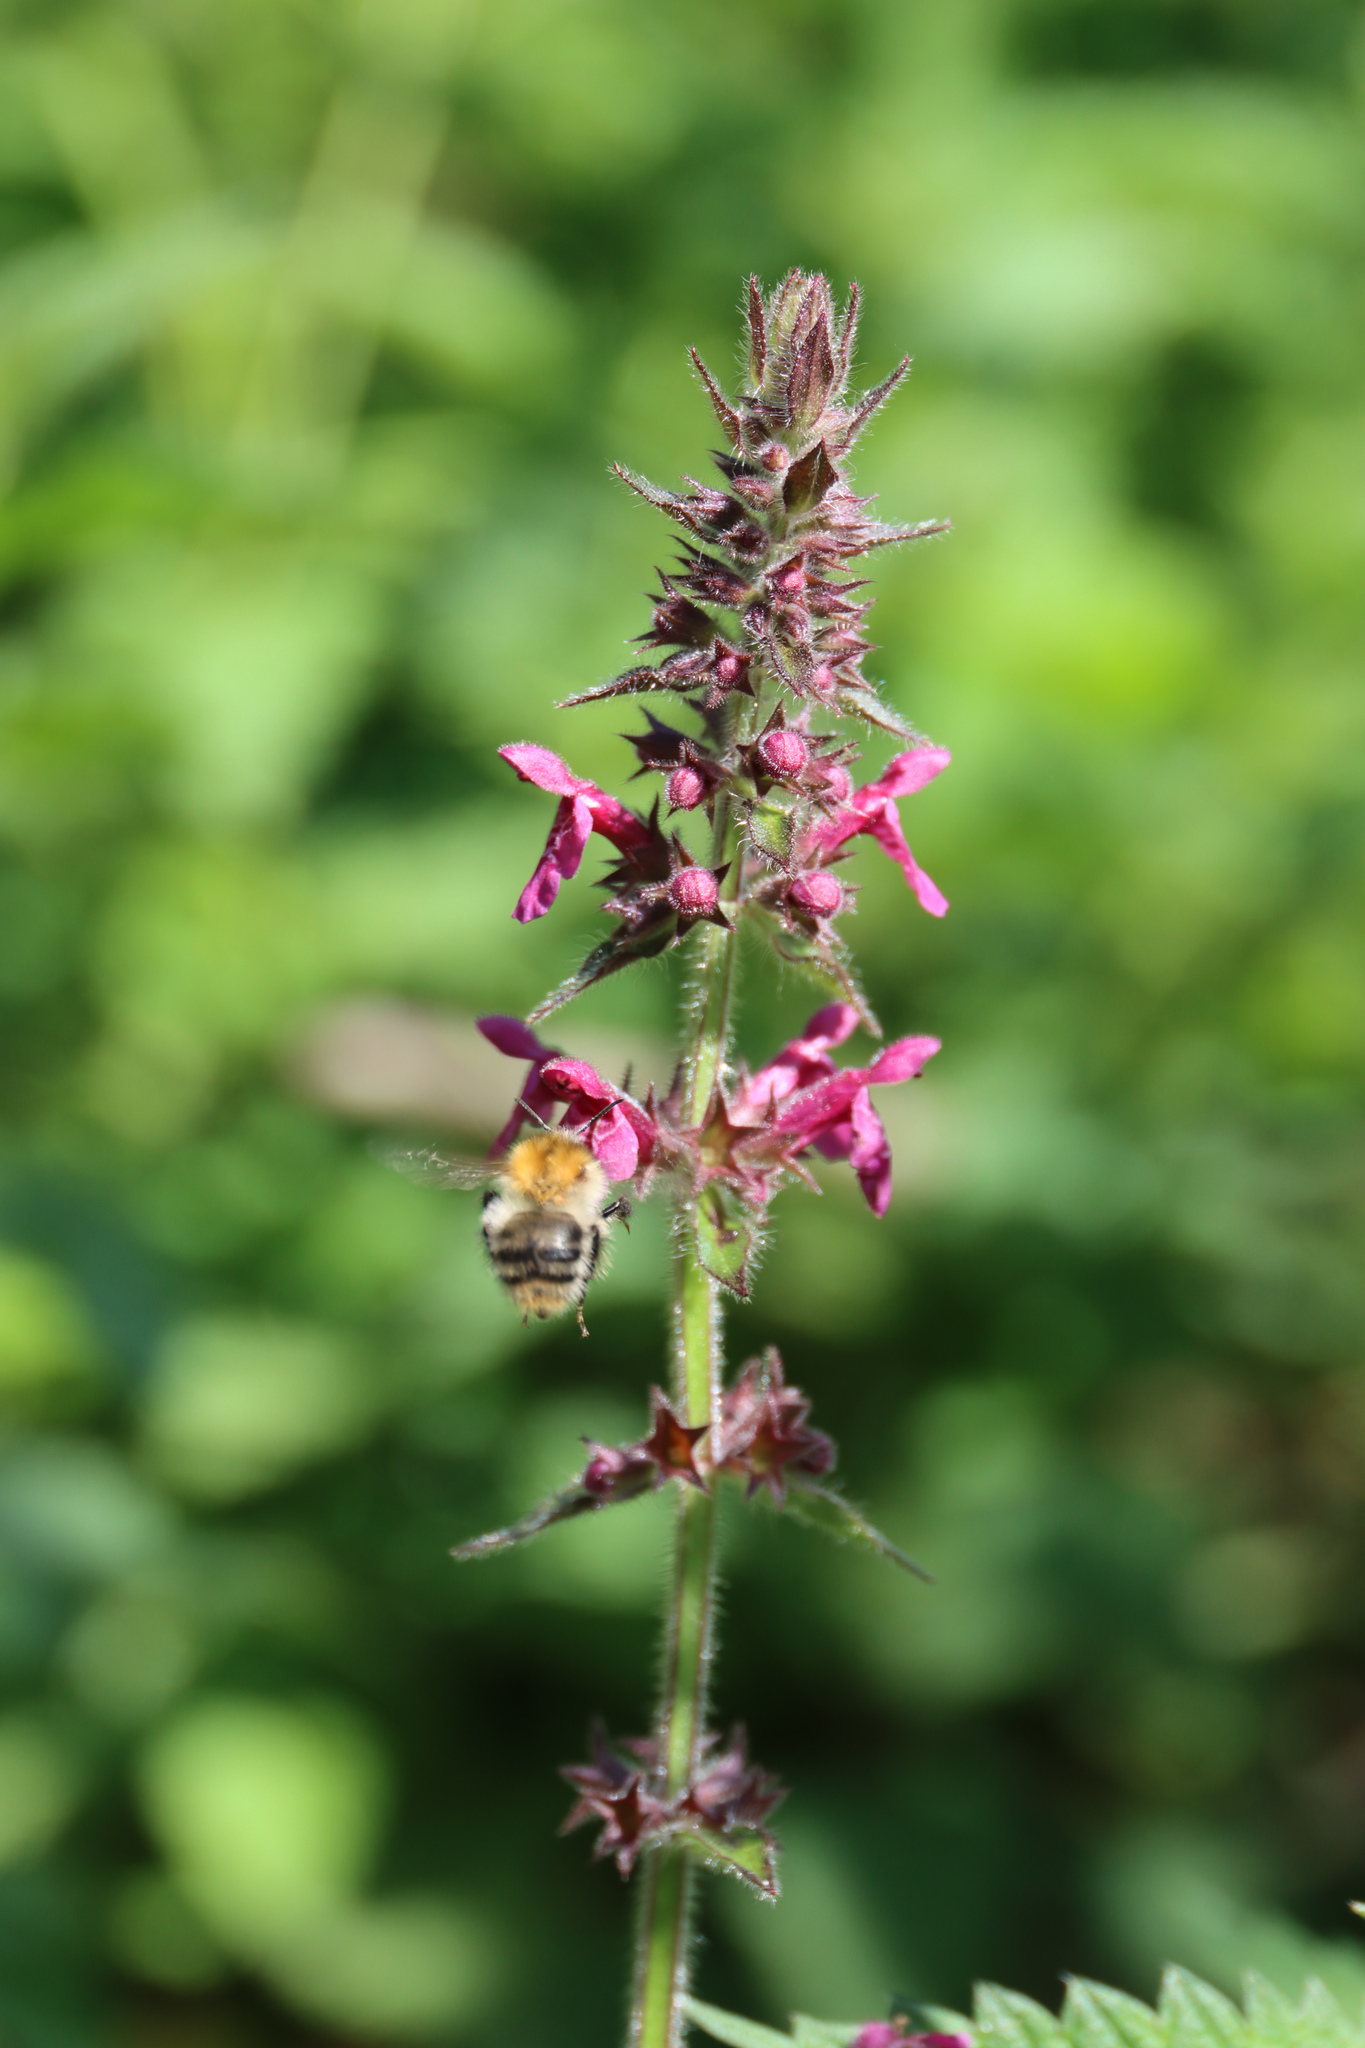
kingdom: Plantae
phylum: Tracheophyta
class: Magnoliopsida
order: Lamiales
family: Lamiaceae
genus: Stachys
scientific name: Stachys sylvatica
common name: Hedge woundwort
